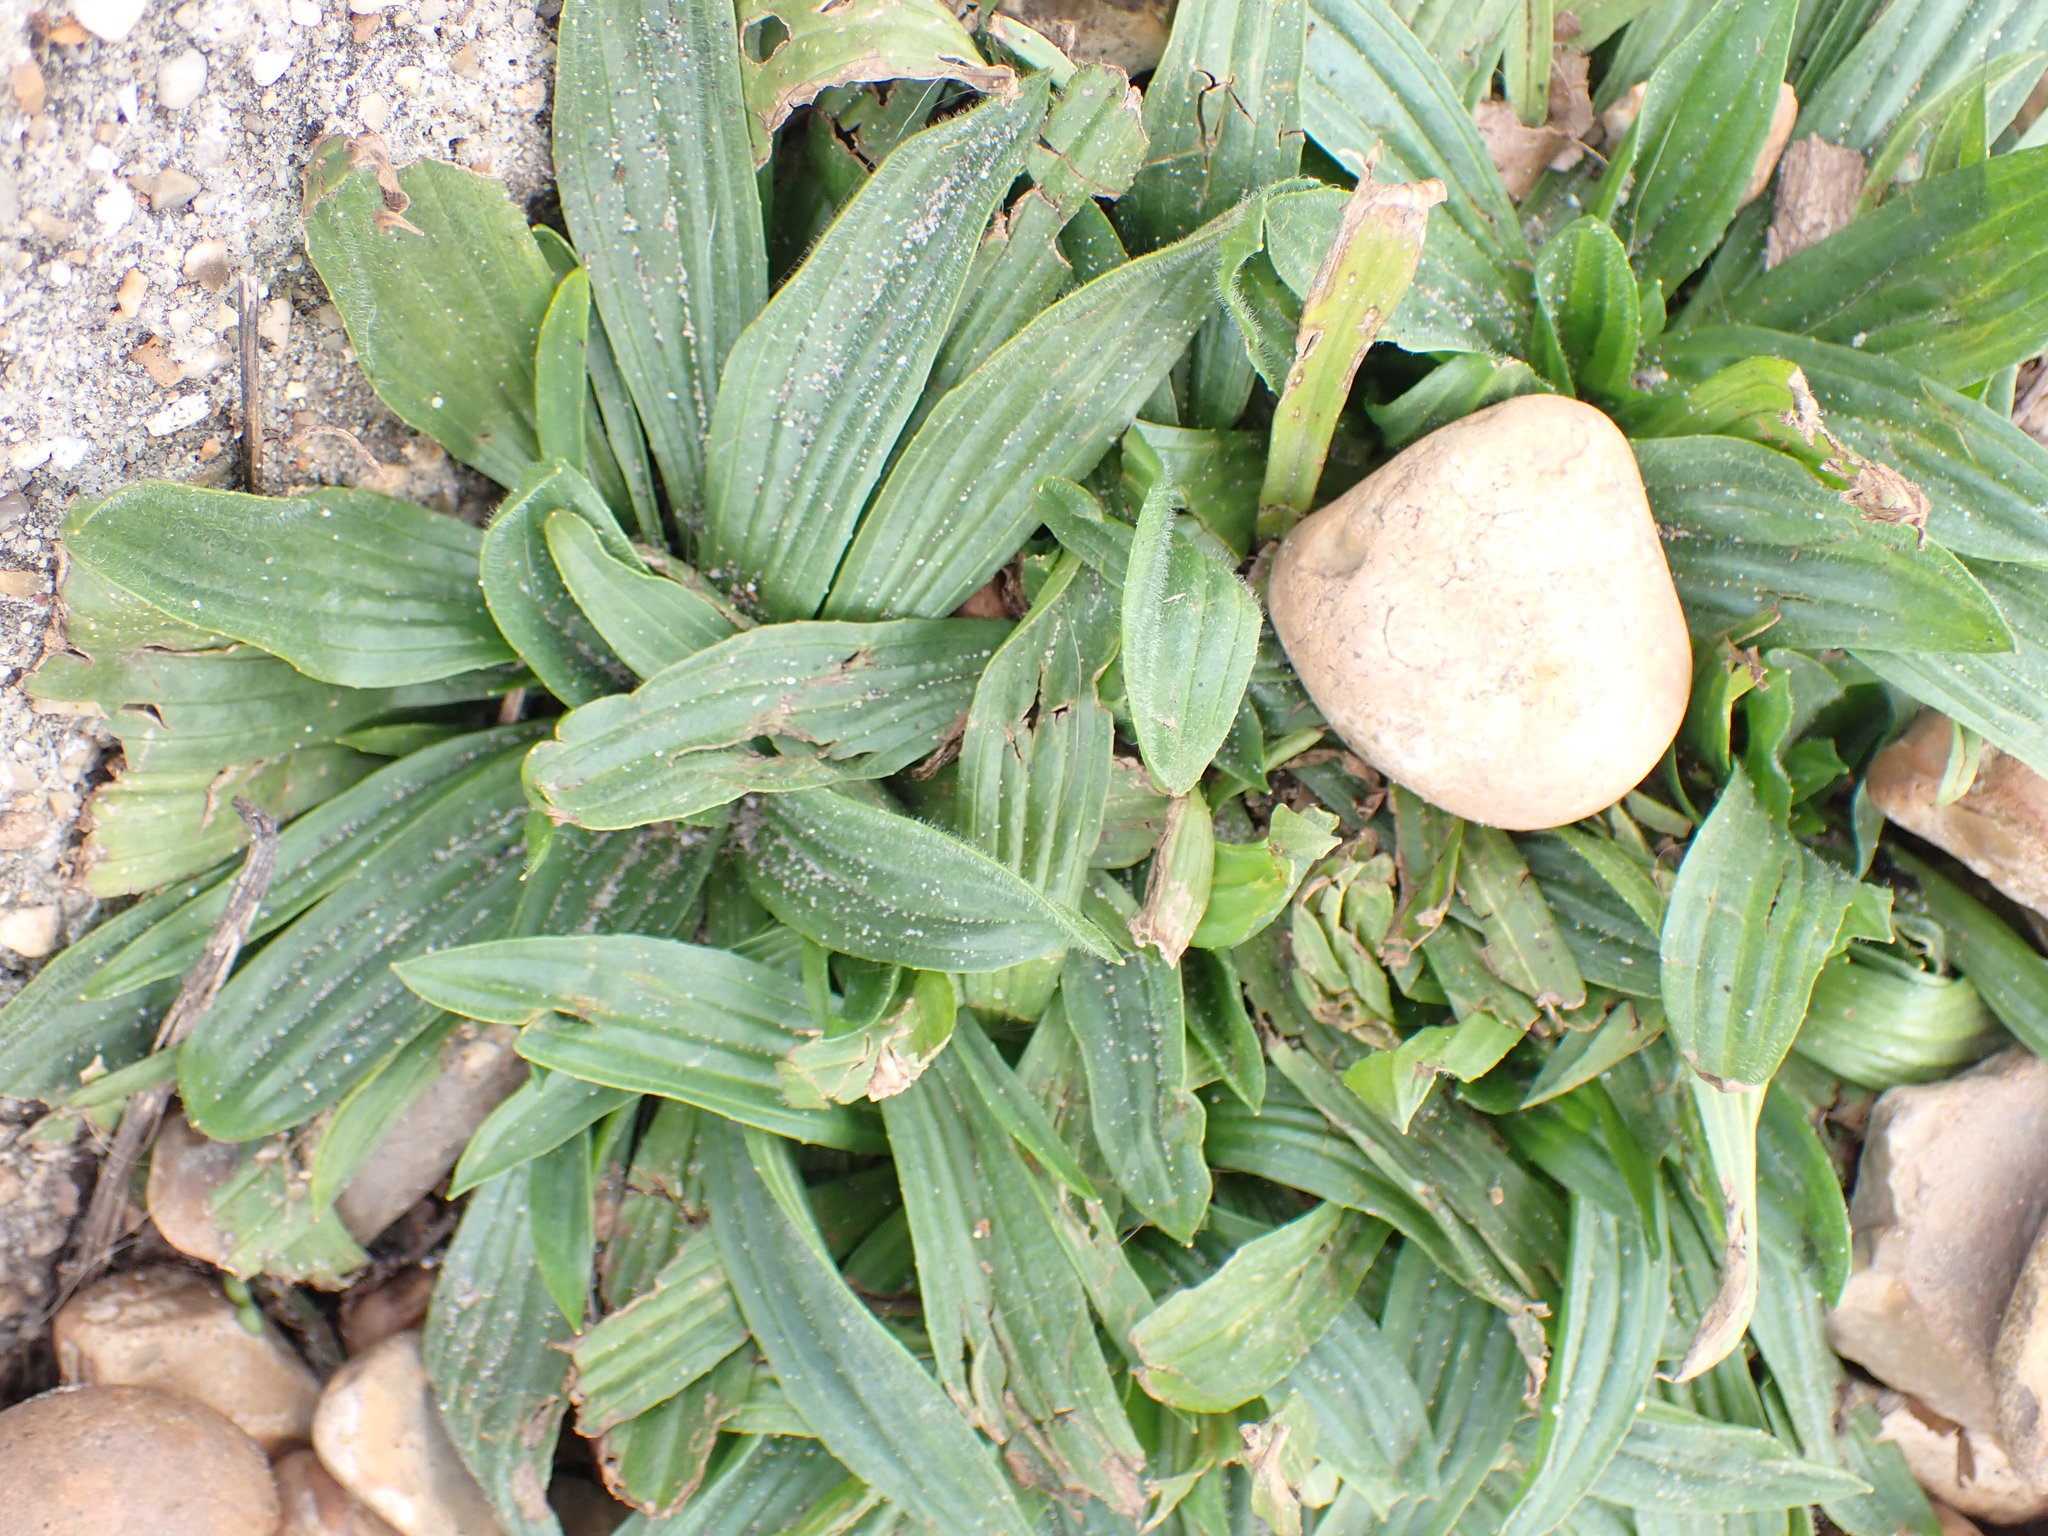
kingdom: Plantae
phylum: Tracheophyta
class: Magnoliopsida
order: Lamiales
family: Plantaginaceae
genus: Plantago
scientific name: Plantago lanceolata
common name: Ribwort plantain
